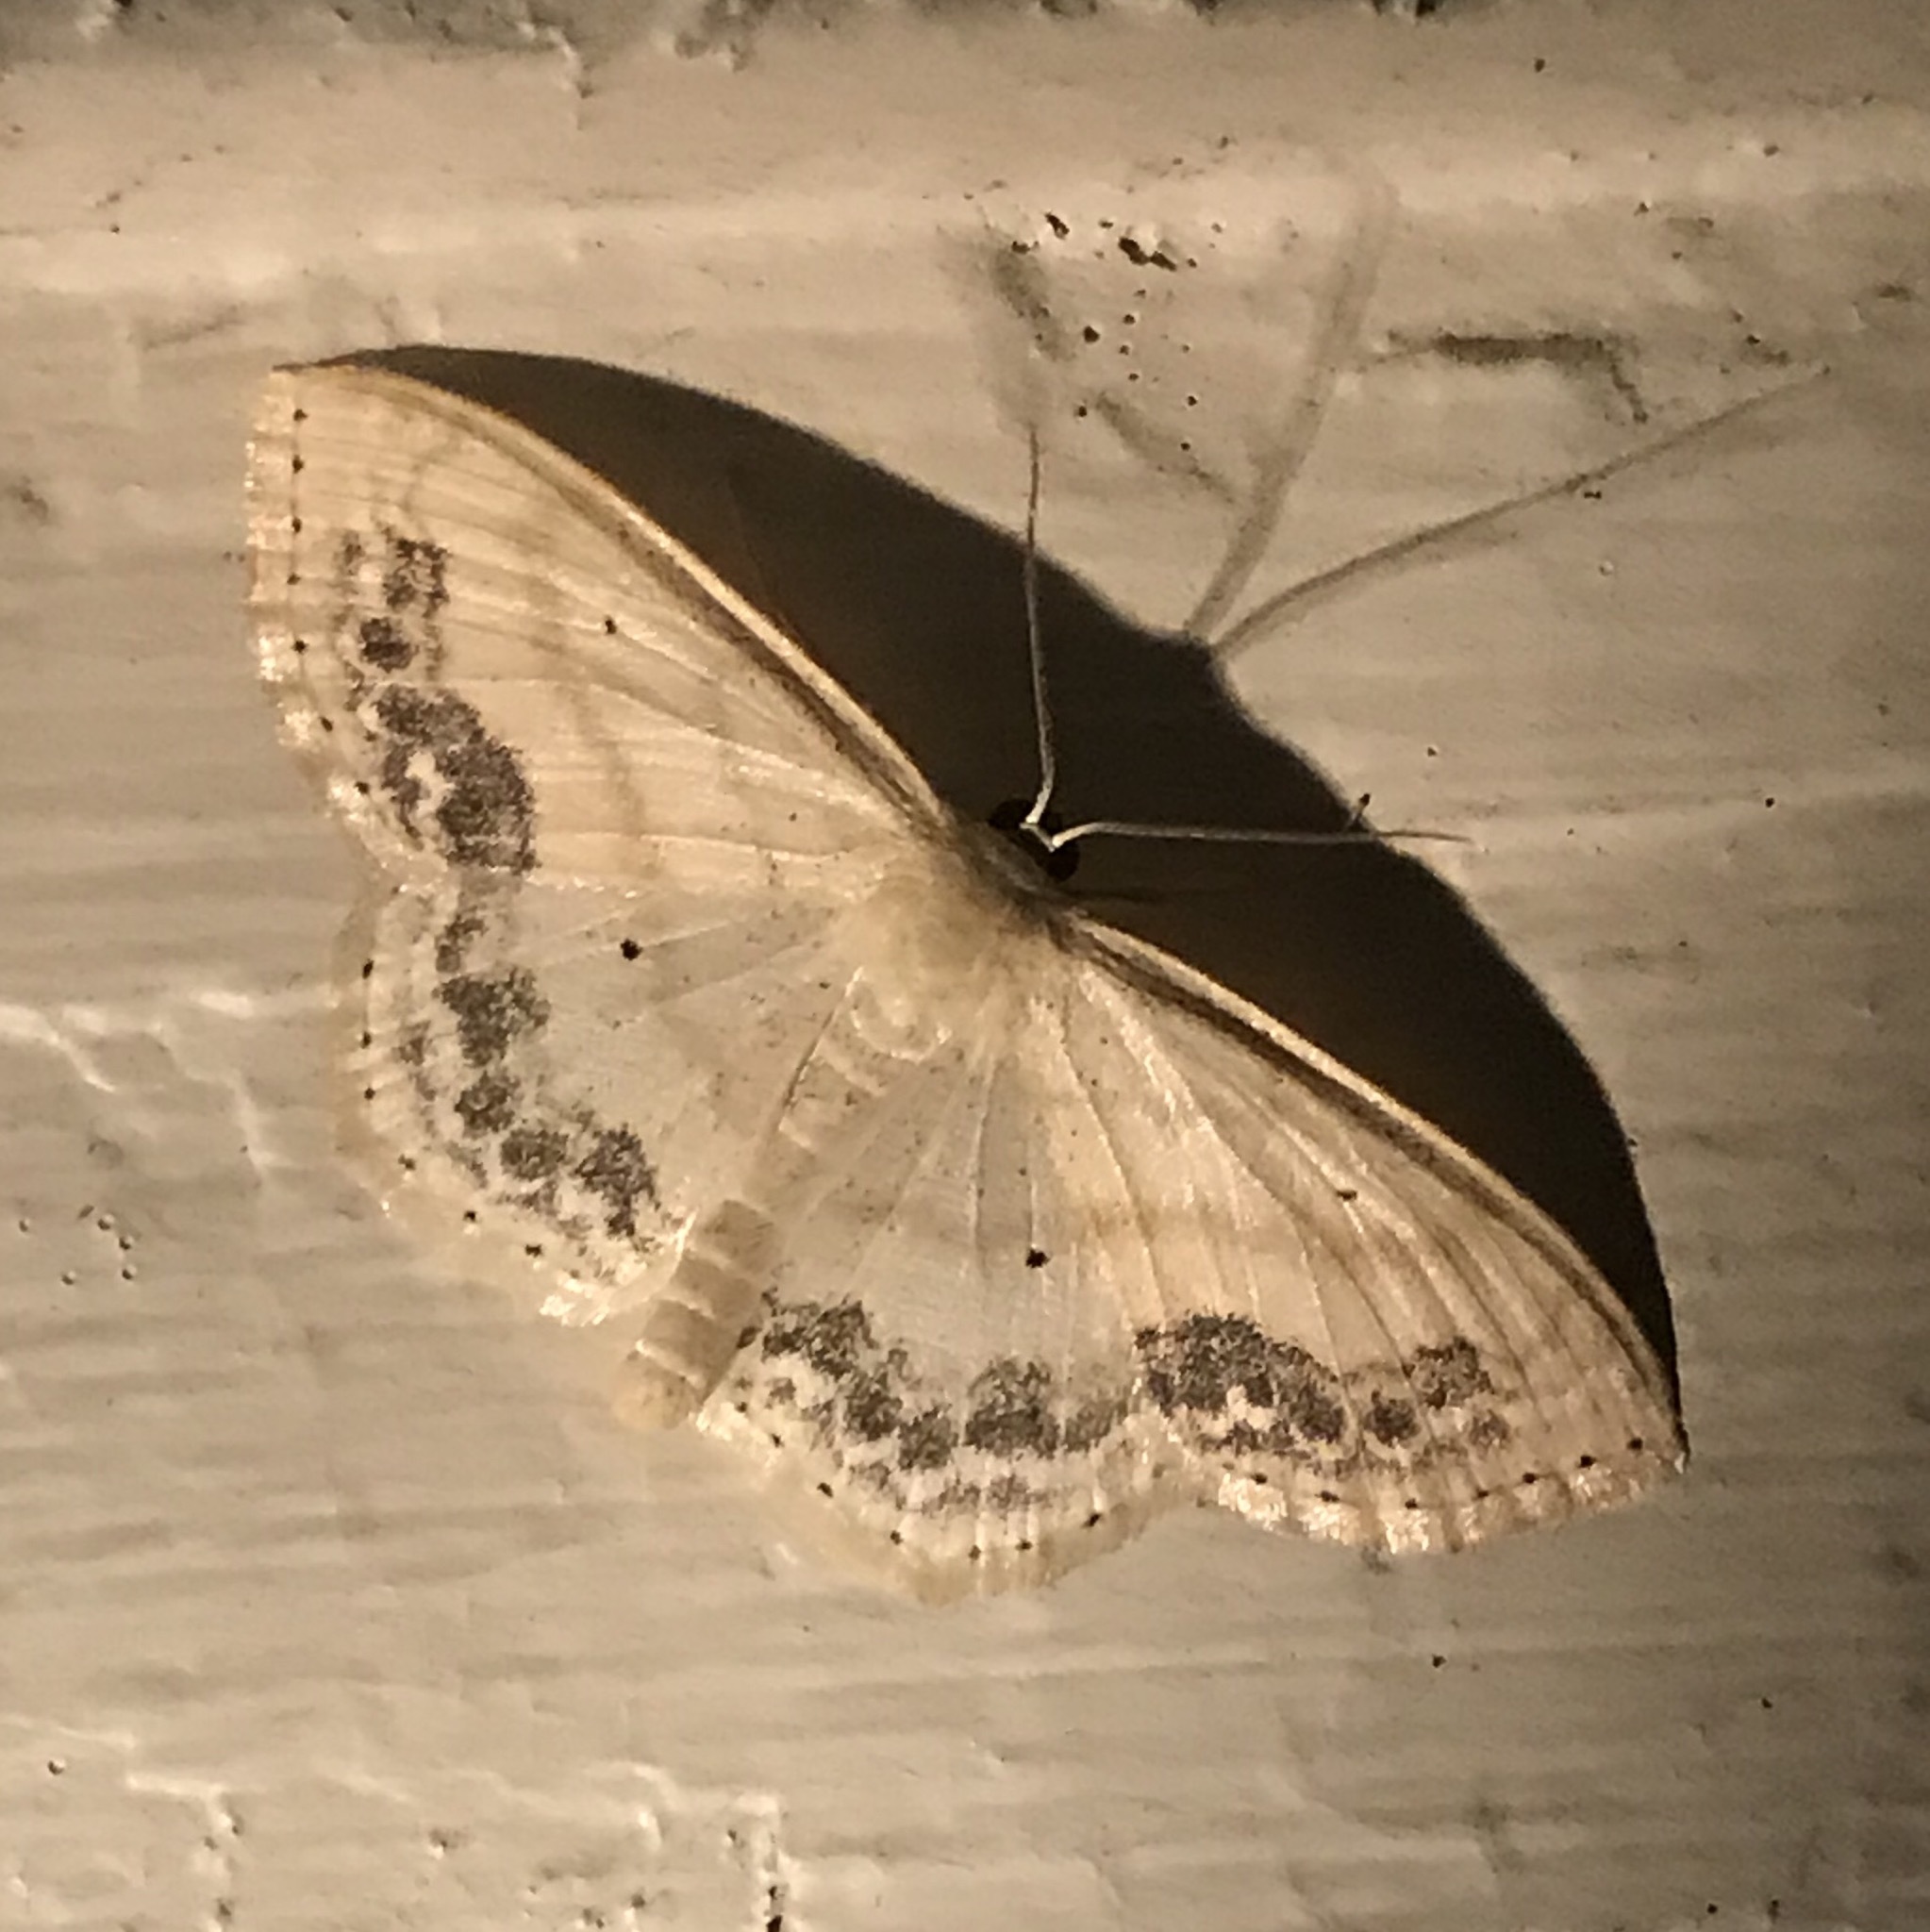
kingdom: Animalia
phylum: Arthropoda
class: Insecta
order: Lepidoptera
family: Geometridae
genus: Scopula
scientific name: Scopula limboundata
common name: Large lace border
